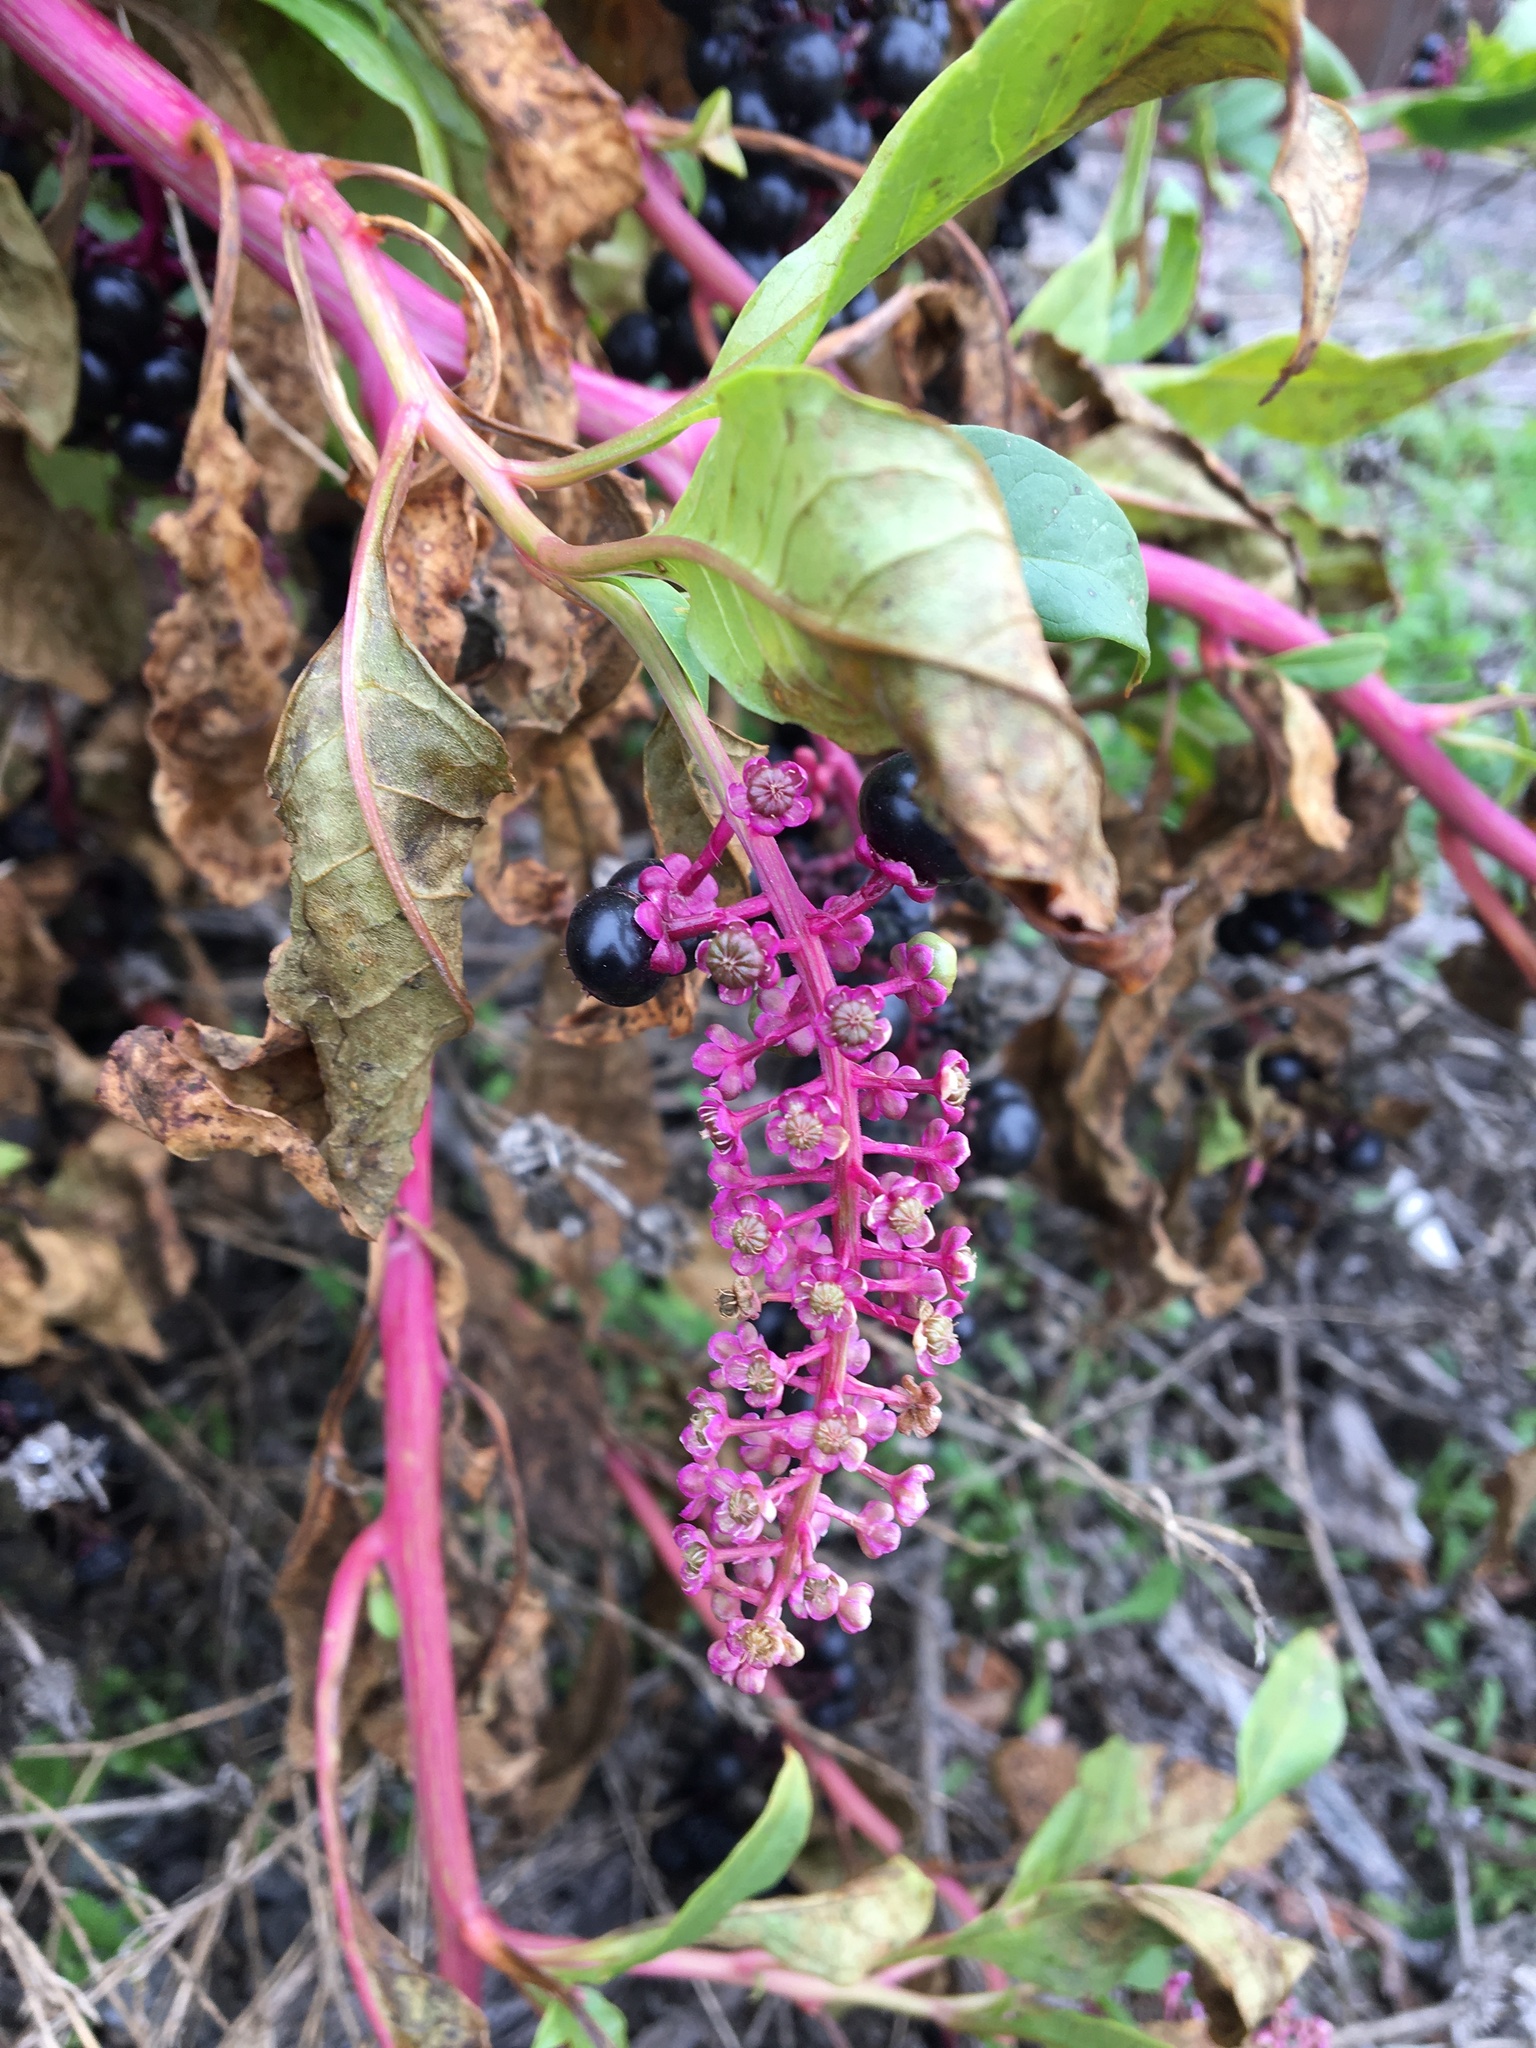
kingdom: Plantae
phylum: Tracheophyta
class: Magnoliopsida
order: Caryophyllales
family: Phytolaccaceae
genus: Phytolacca
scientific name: Phytolacca americana
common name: American pokeweed
